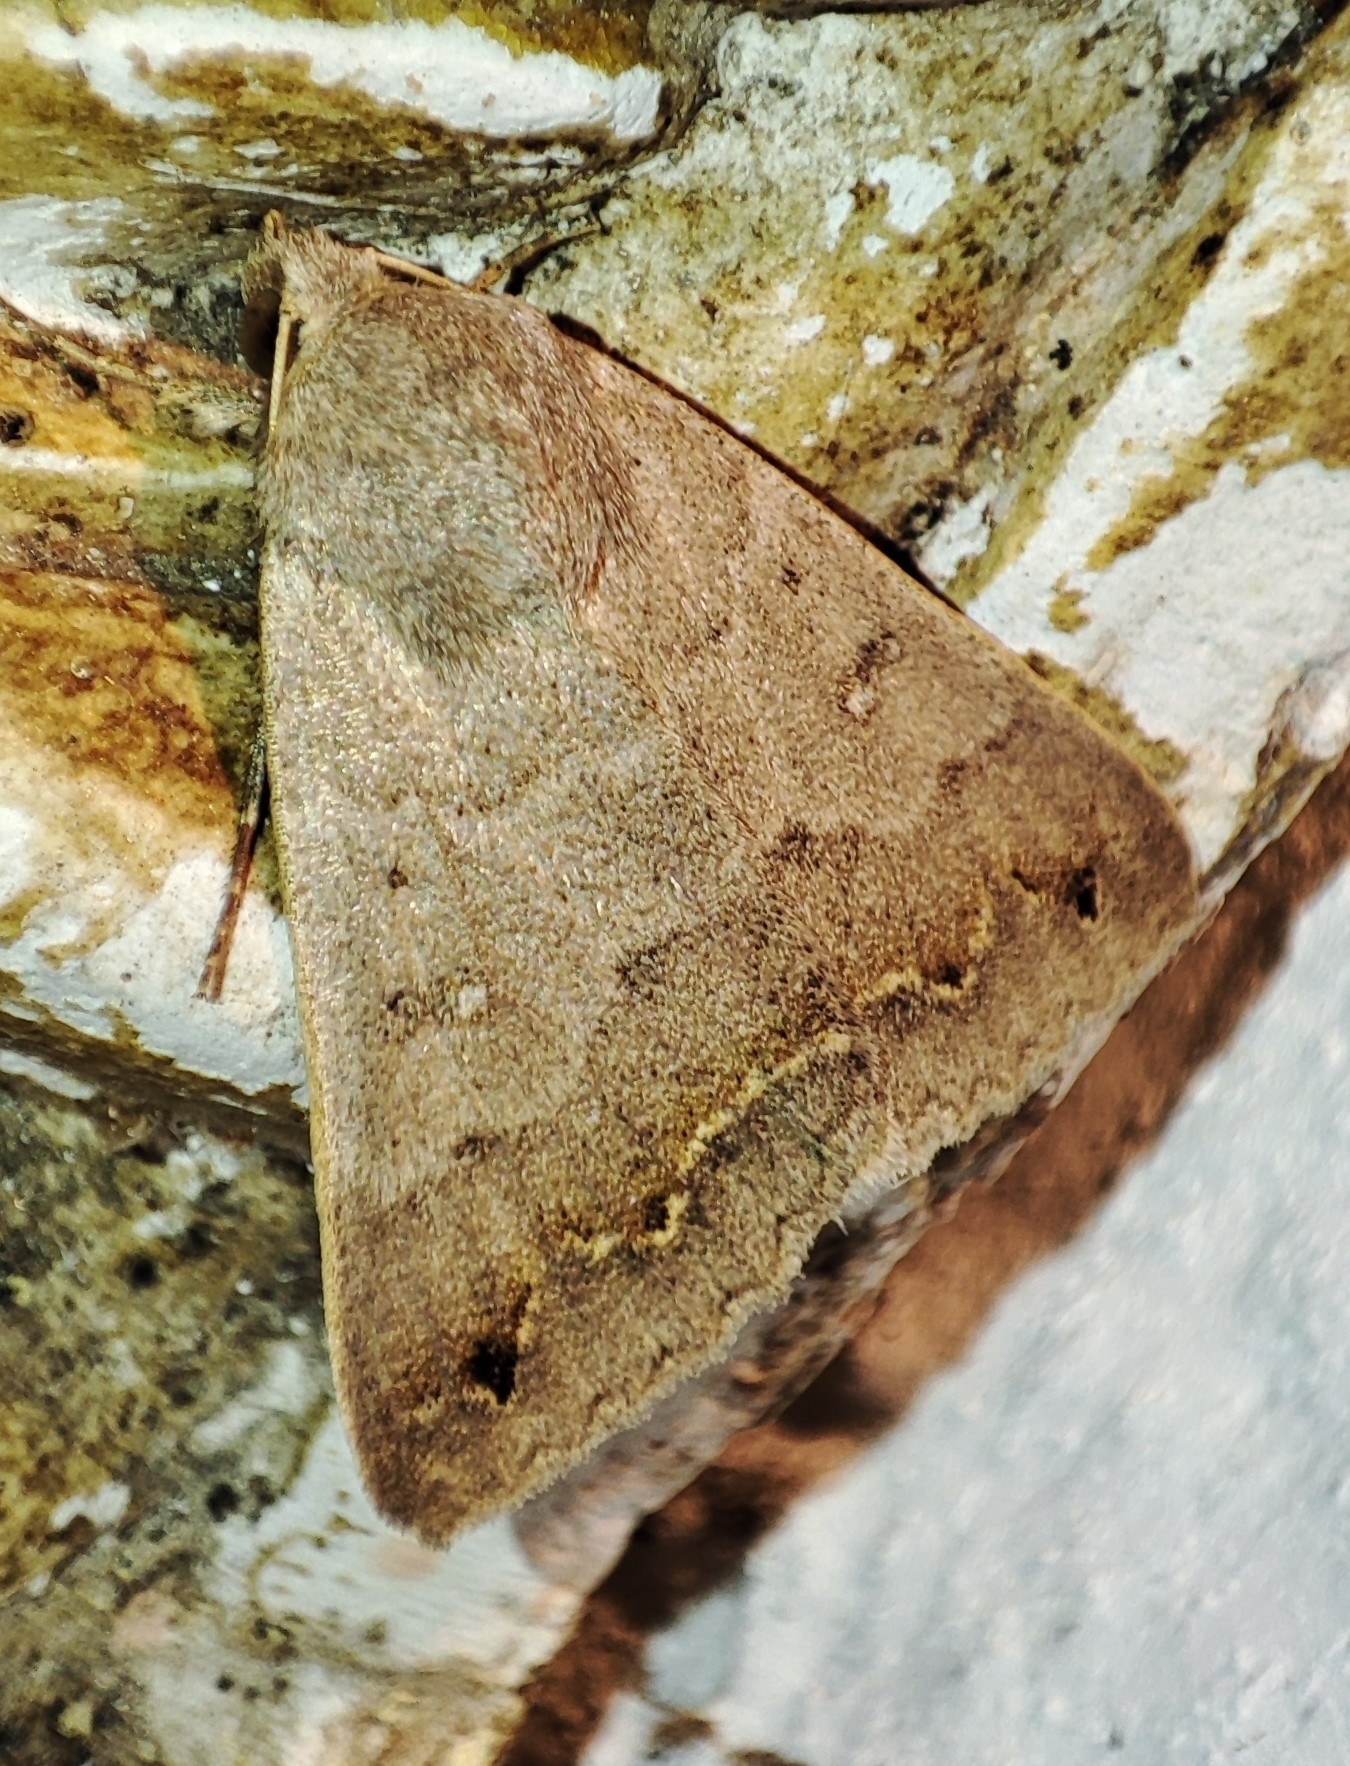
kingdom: Animalia
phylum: Arthropoda
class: Insecta
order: Lepidoptera
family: Erebidae
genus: Clytie
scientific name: Clytie syriaca
